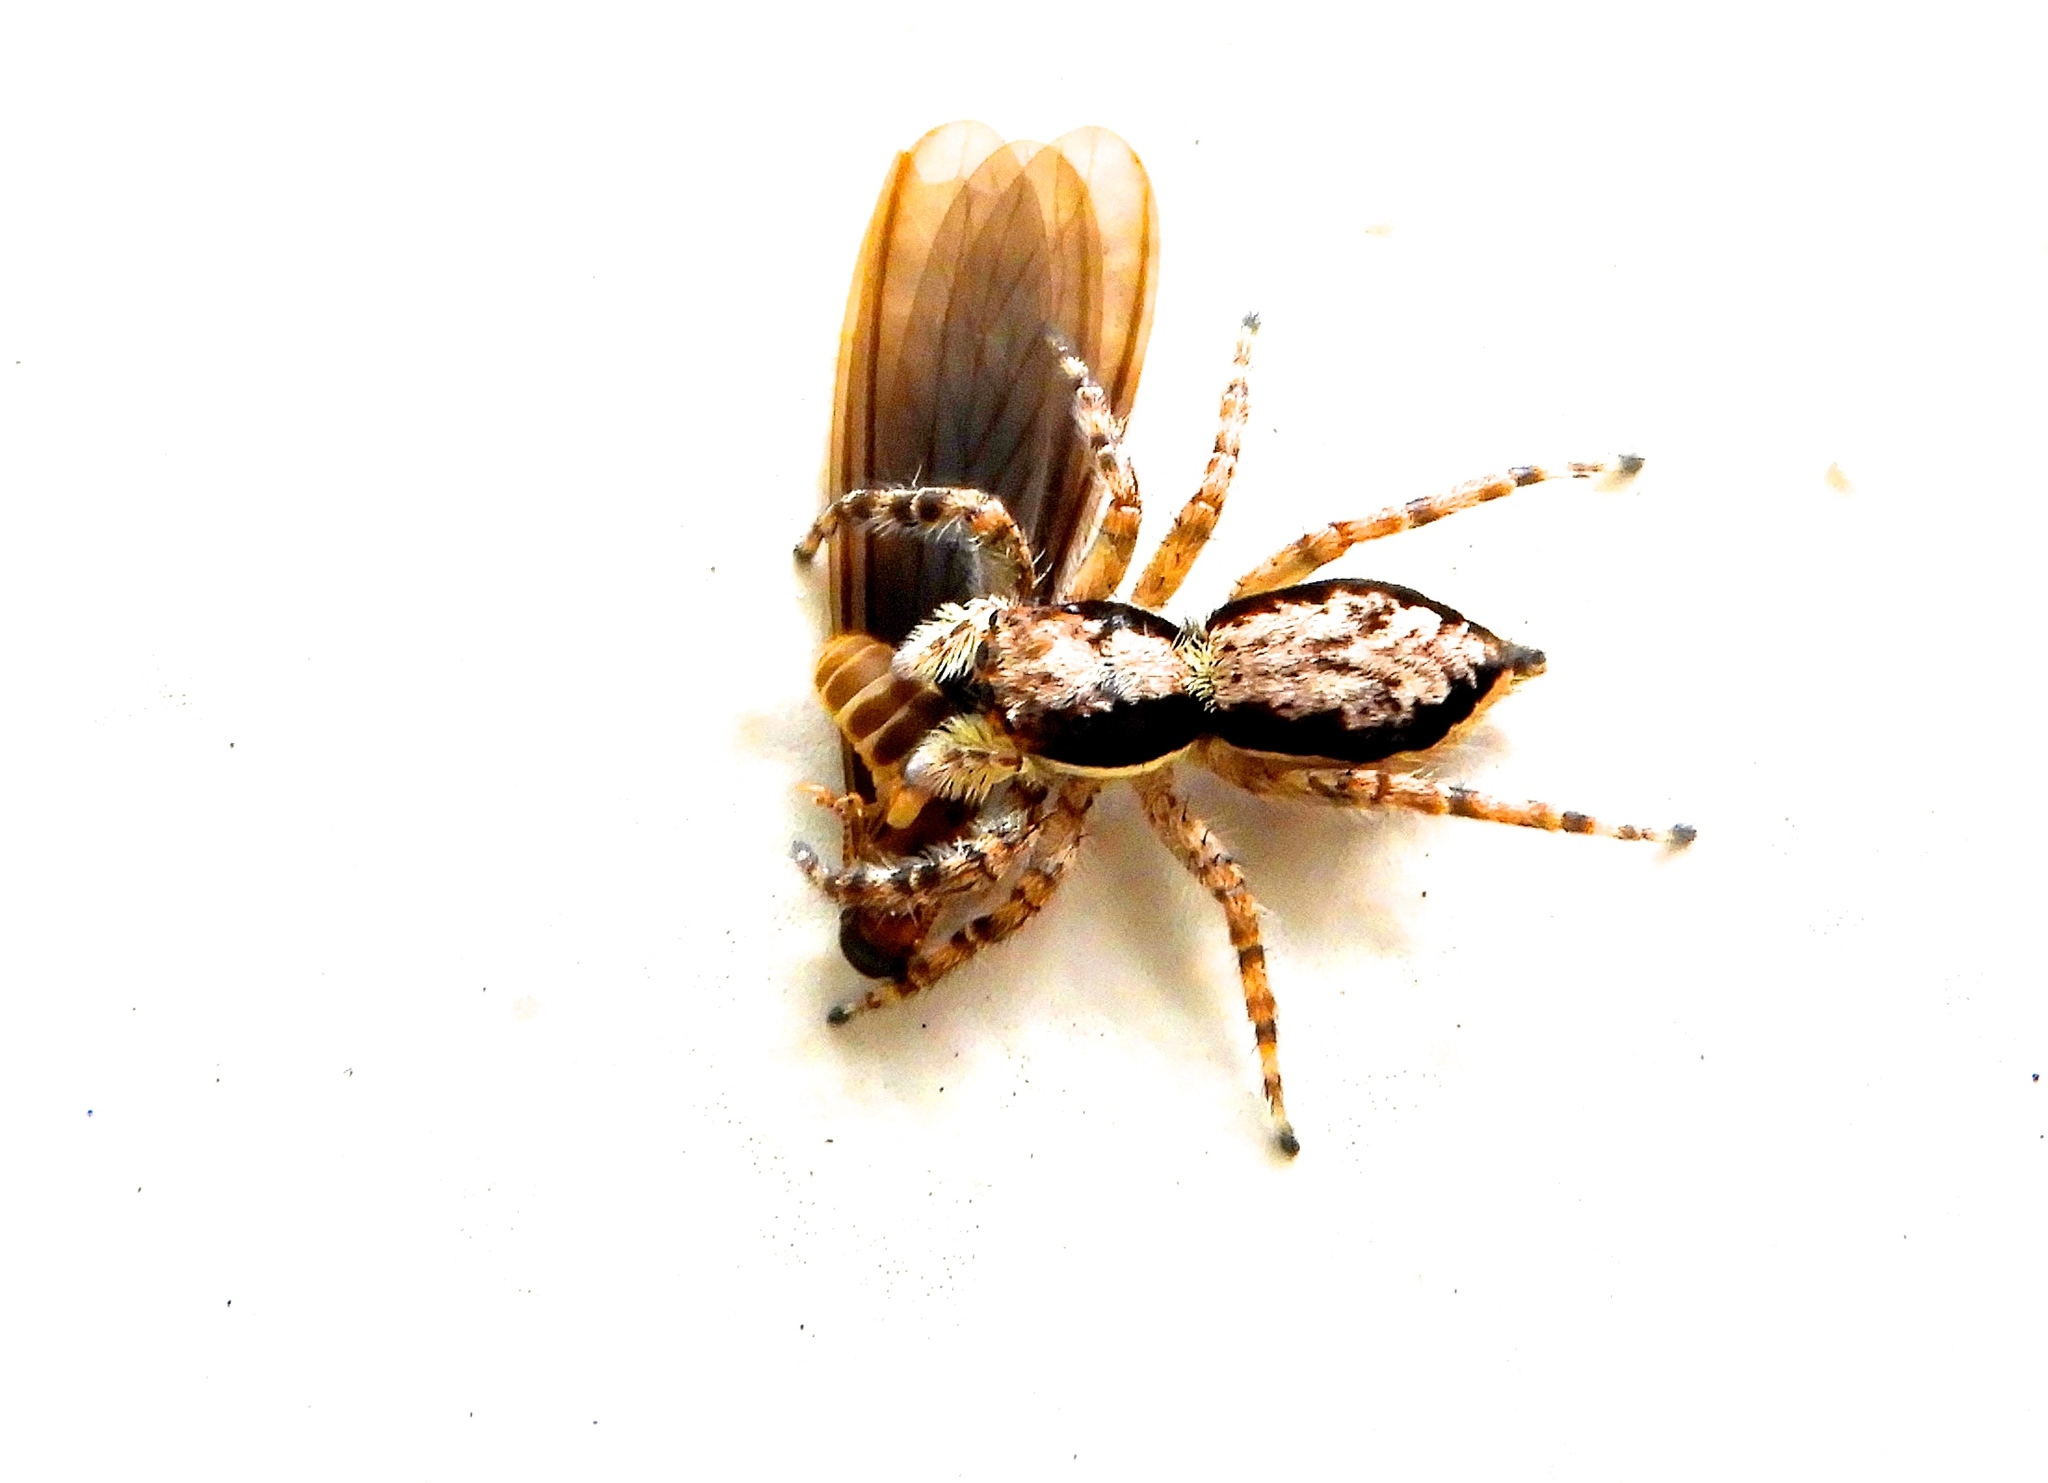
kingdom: Animalia
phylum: Arthropoda
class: Arachnida
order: Araneae
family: Salticidae
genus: Menemerus
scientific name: Menemerus bivittatus
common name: Gray wall jumper
